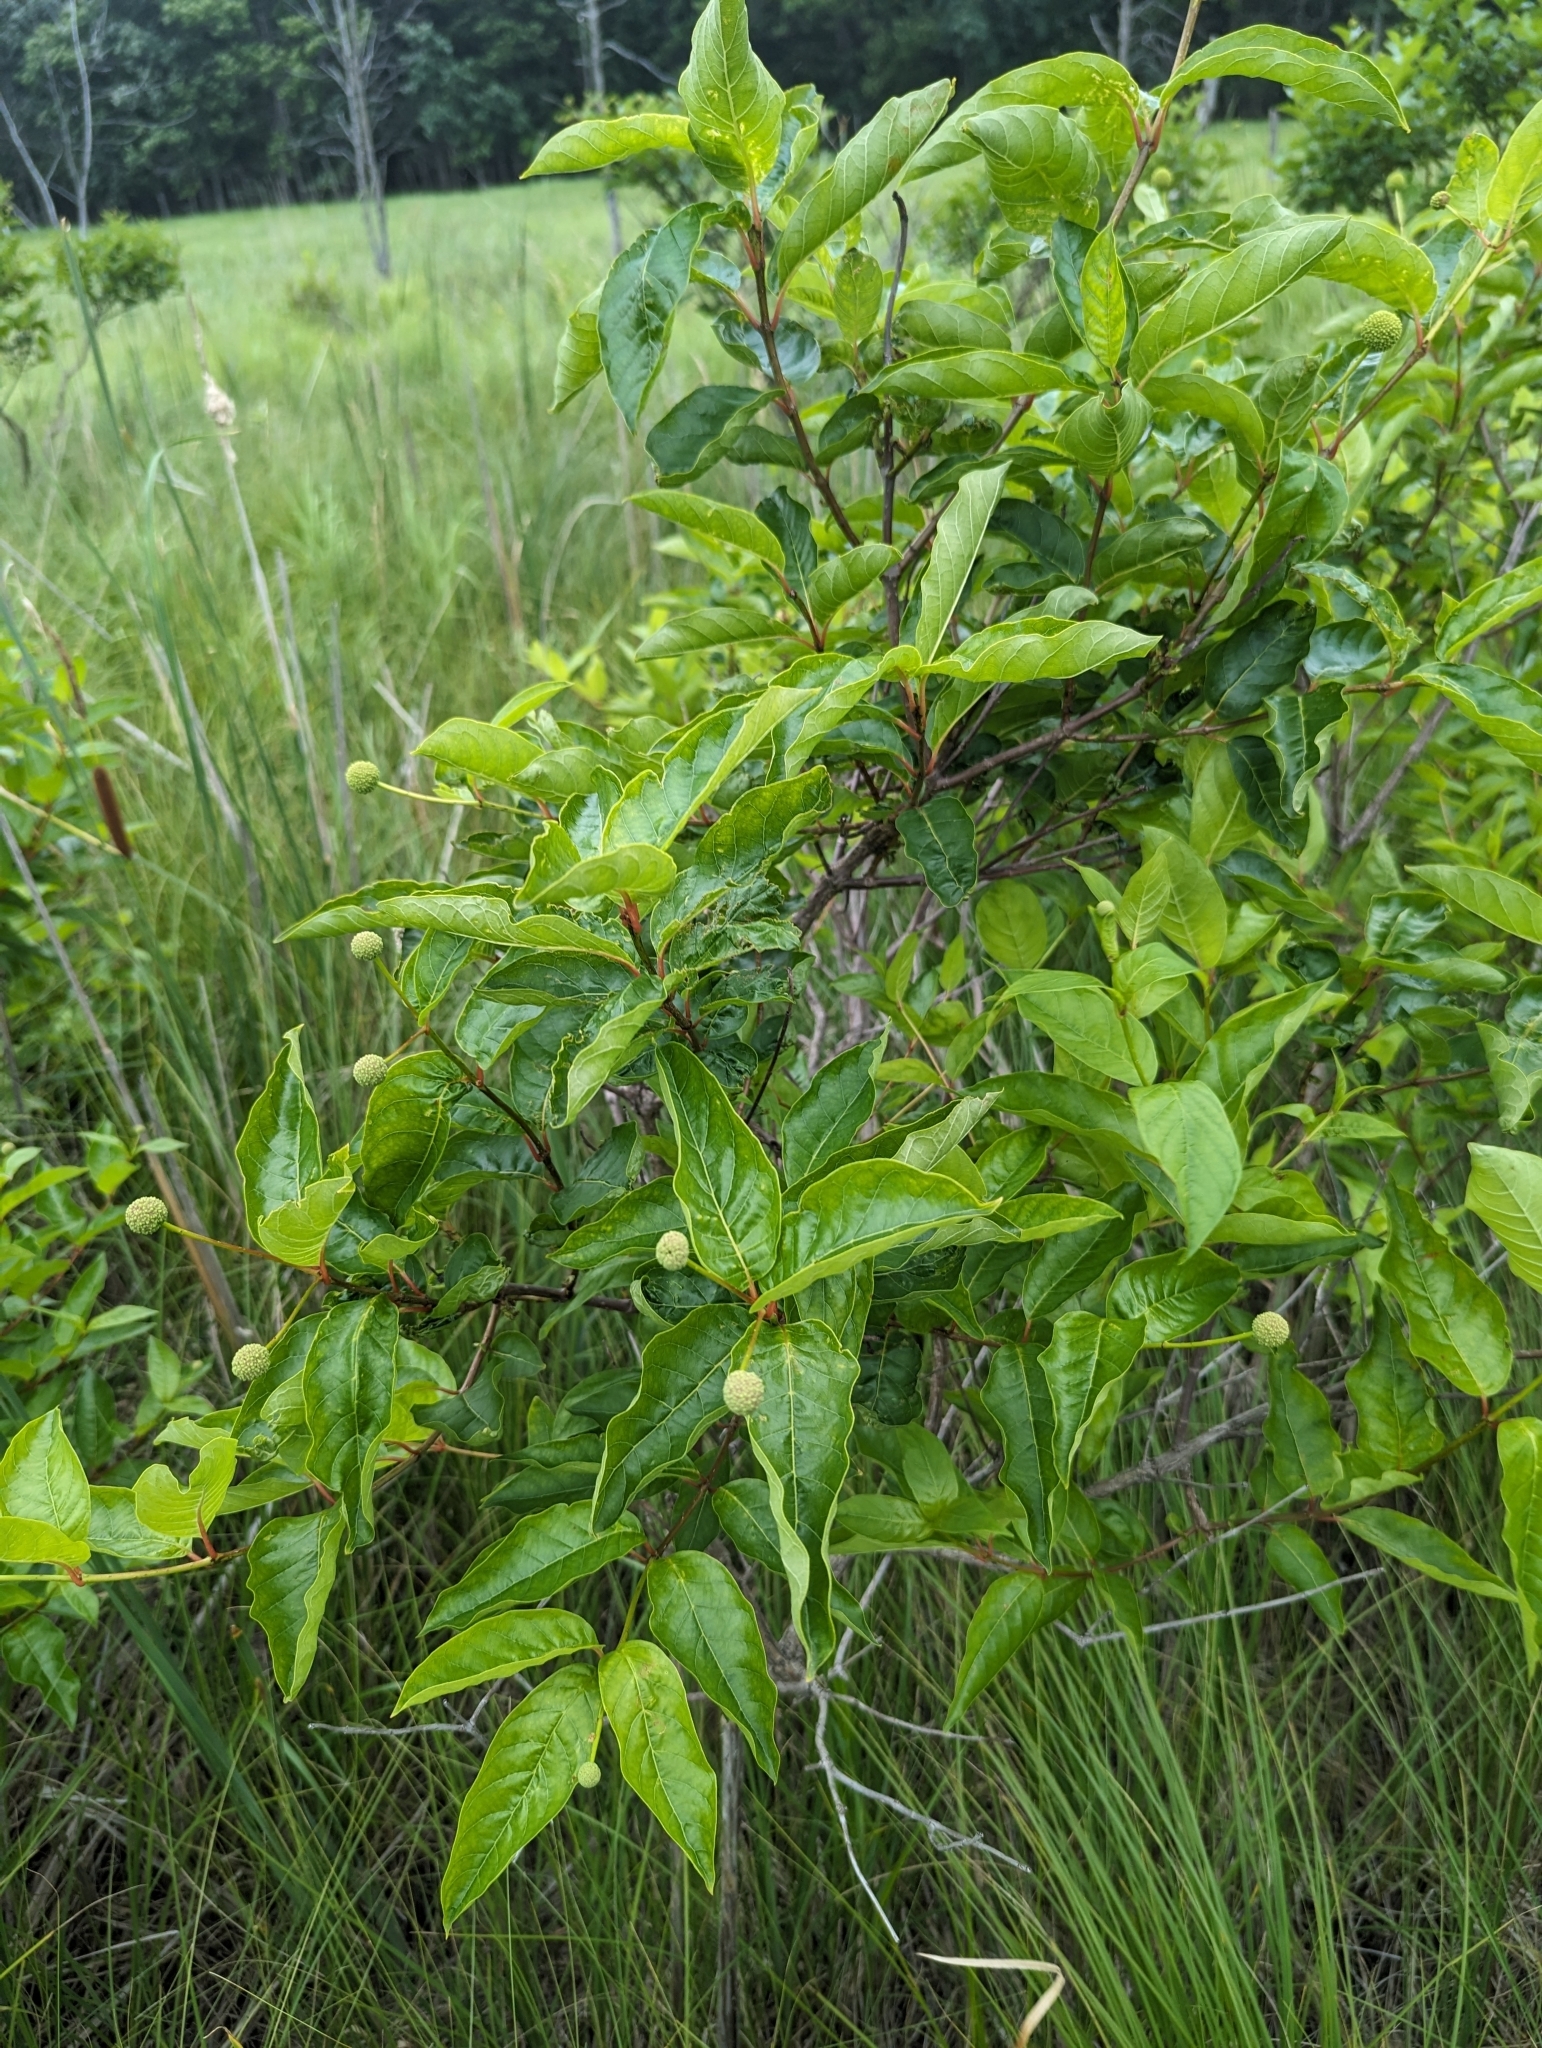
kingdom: Plantae
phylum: Tracheophyta
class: Magnoliopsida
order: Gentianales
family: Rubiaceae
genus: Cephalanthus
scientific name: Cephalanthus occidentalis
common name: Button-willow
